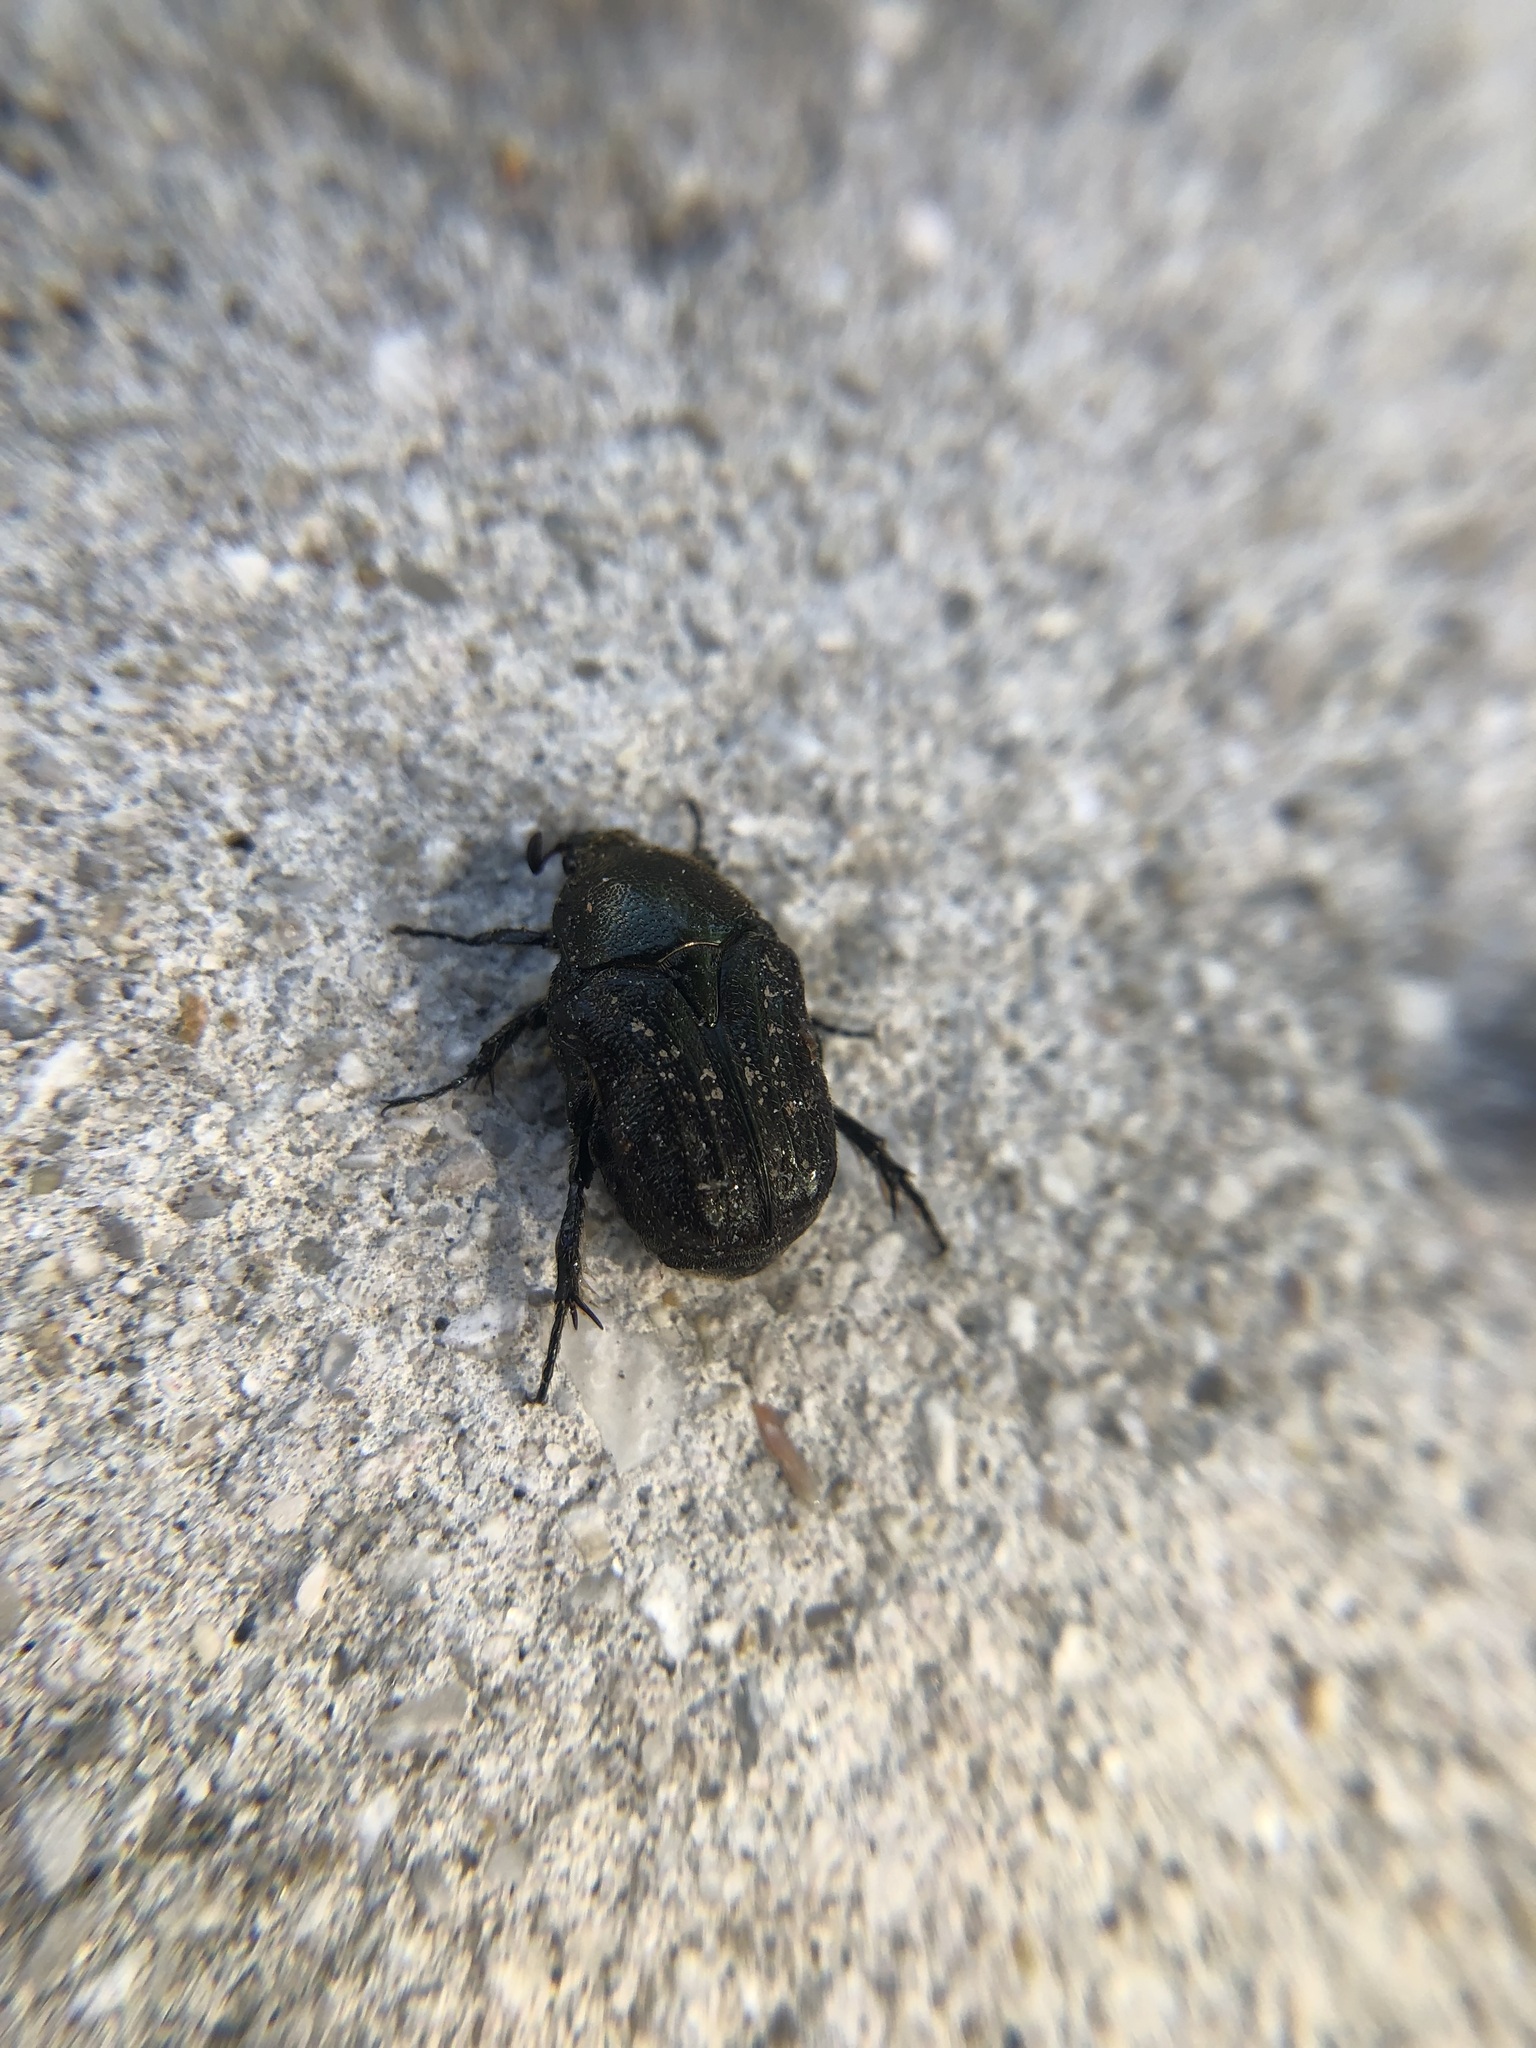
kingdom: Animalia
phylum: Arthropoda
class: Insecta
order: Coleoptera
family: Scarabaeidae
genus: Euphoria
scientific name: Euphoria sepulcralis
